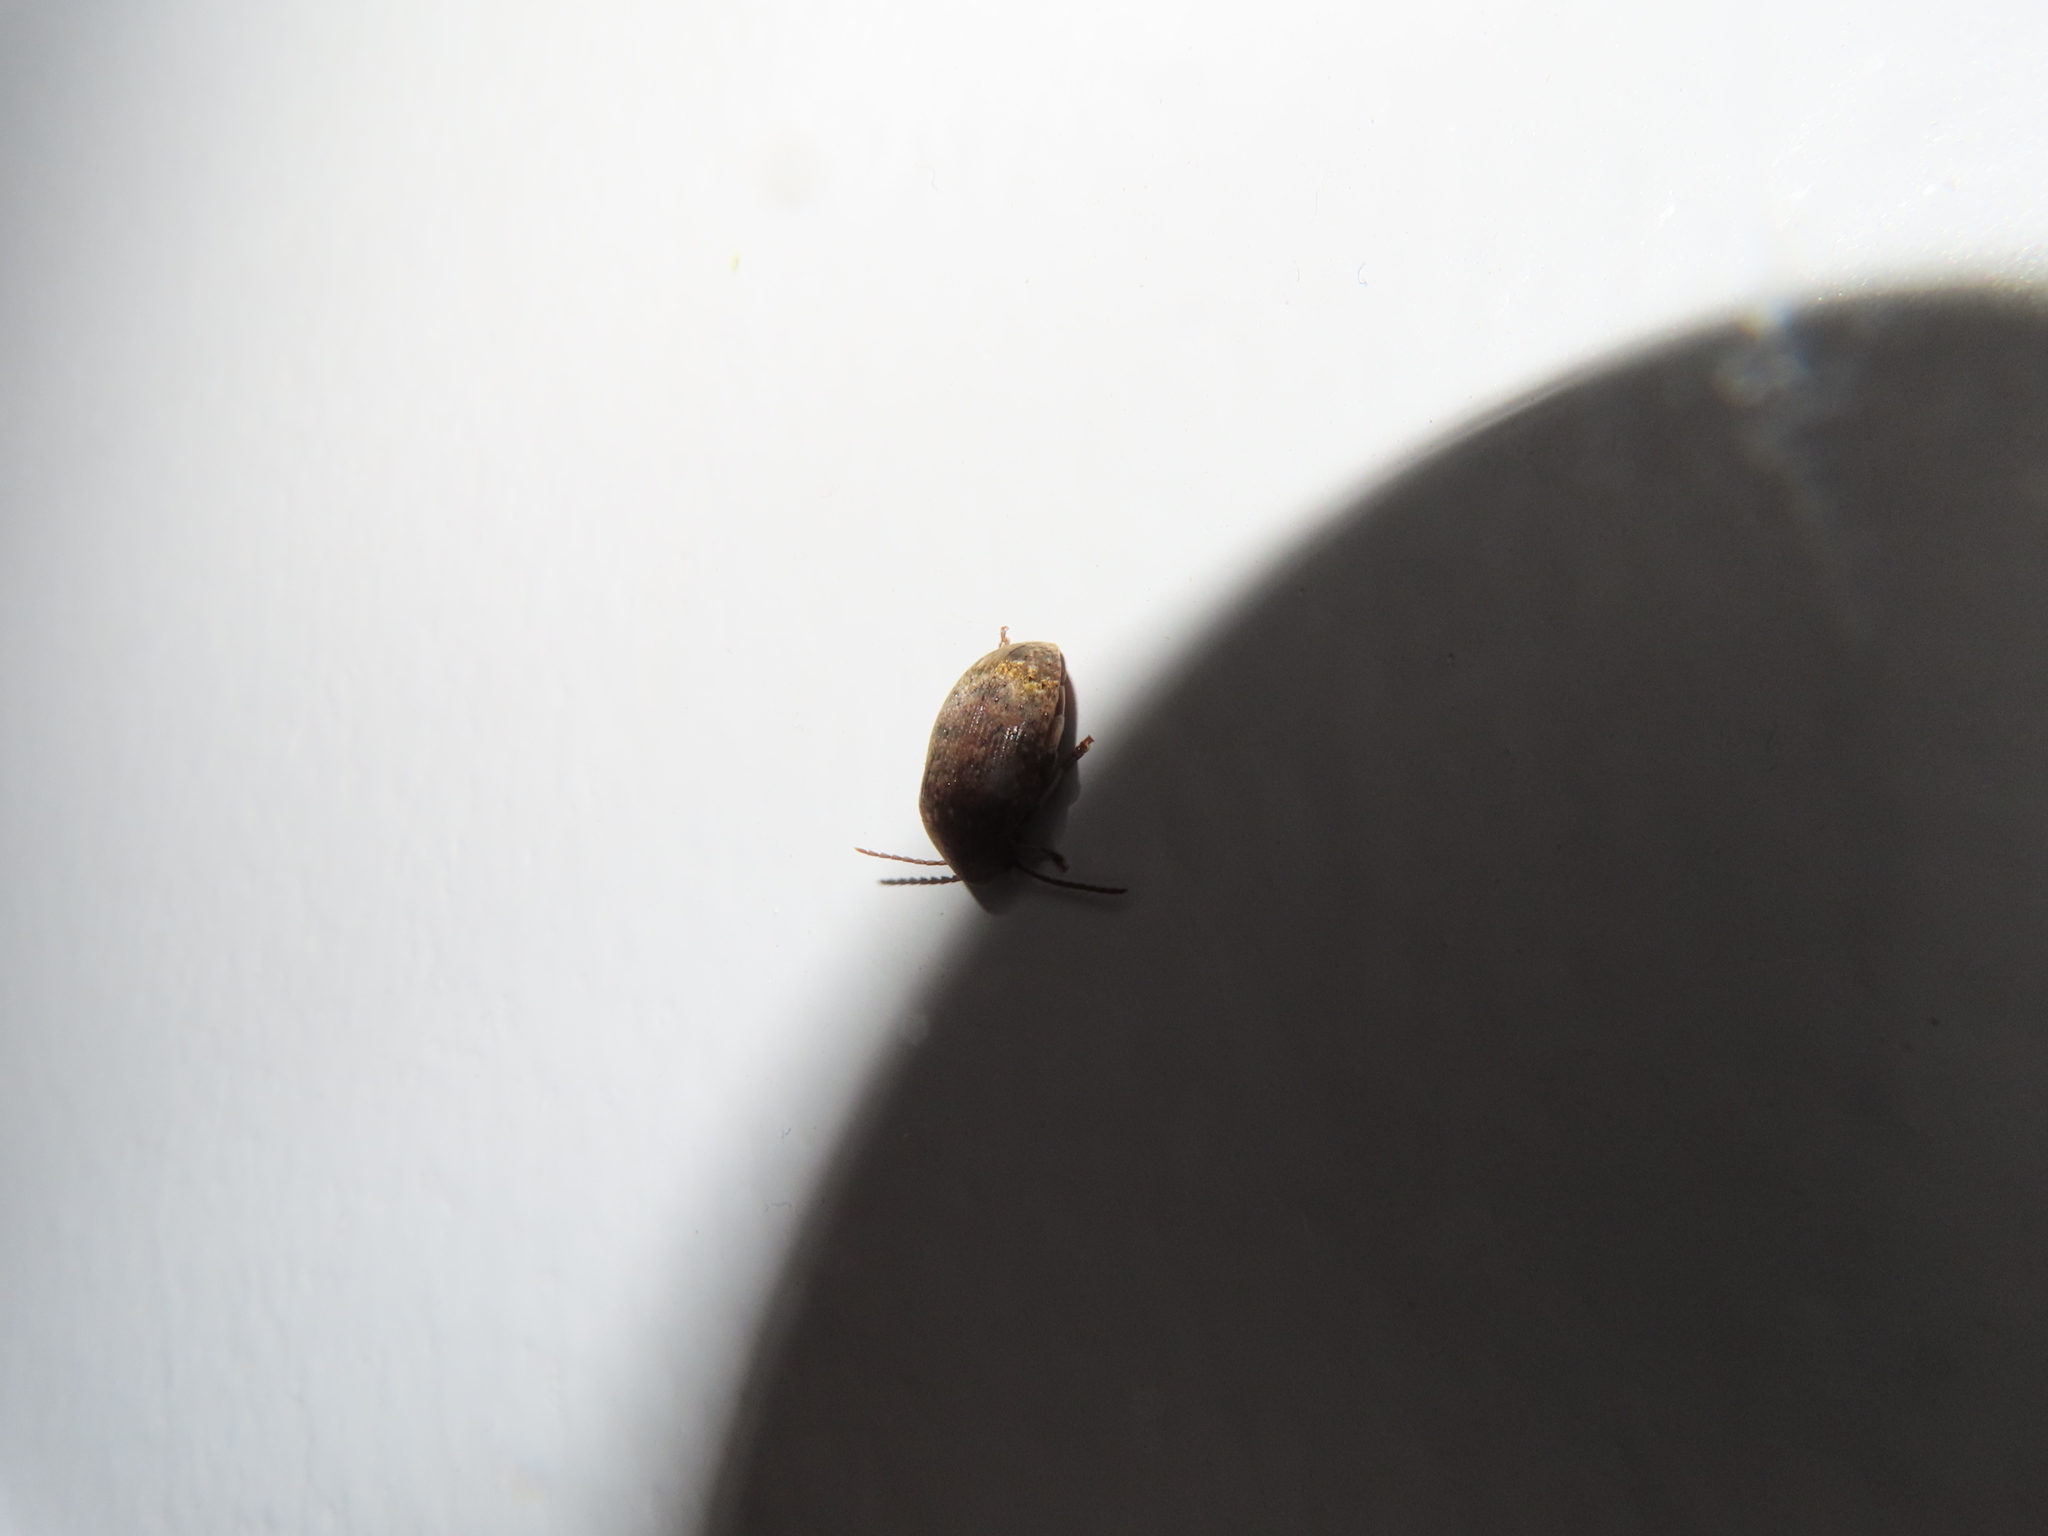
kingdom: Animalia
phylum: Arthropoda
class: Insecta
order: Coleoptera
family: Chrysomelidae
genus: Amblycerus
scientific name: Amblycerus robiniae
